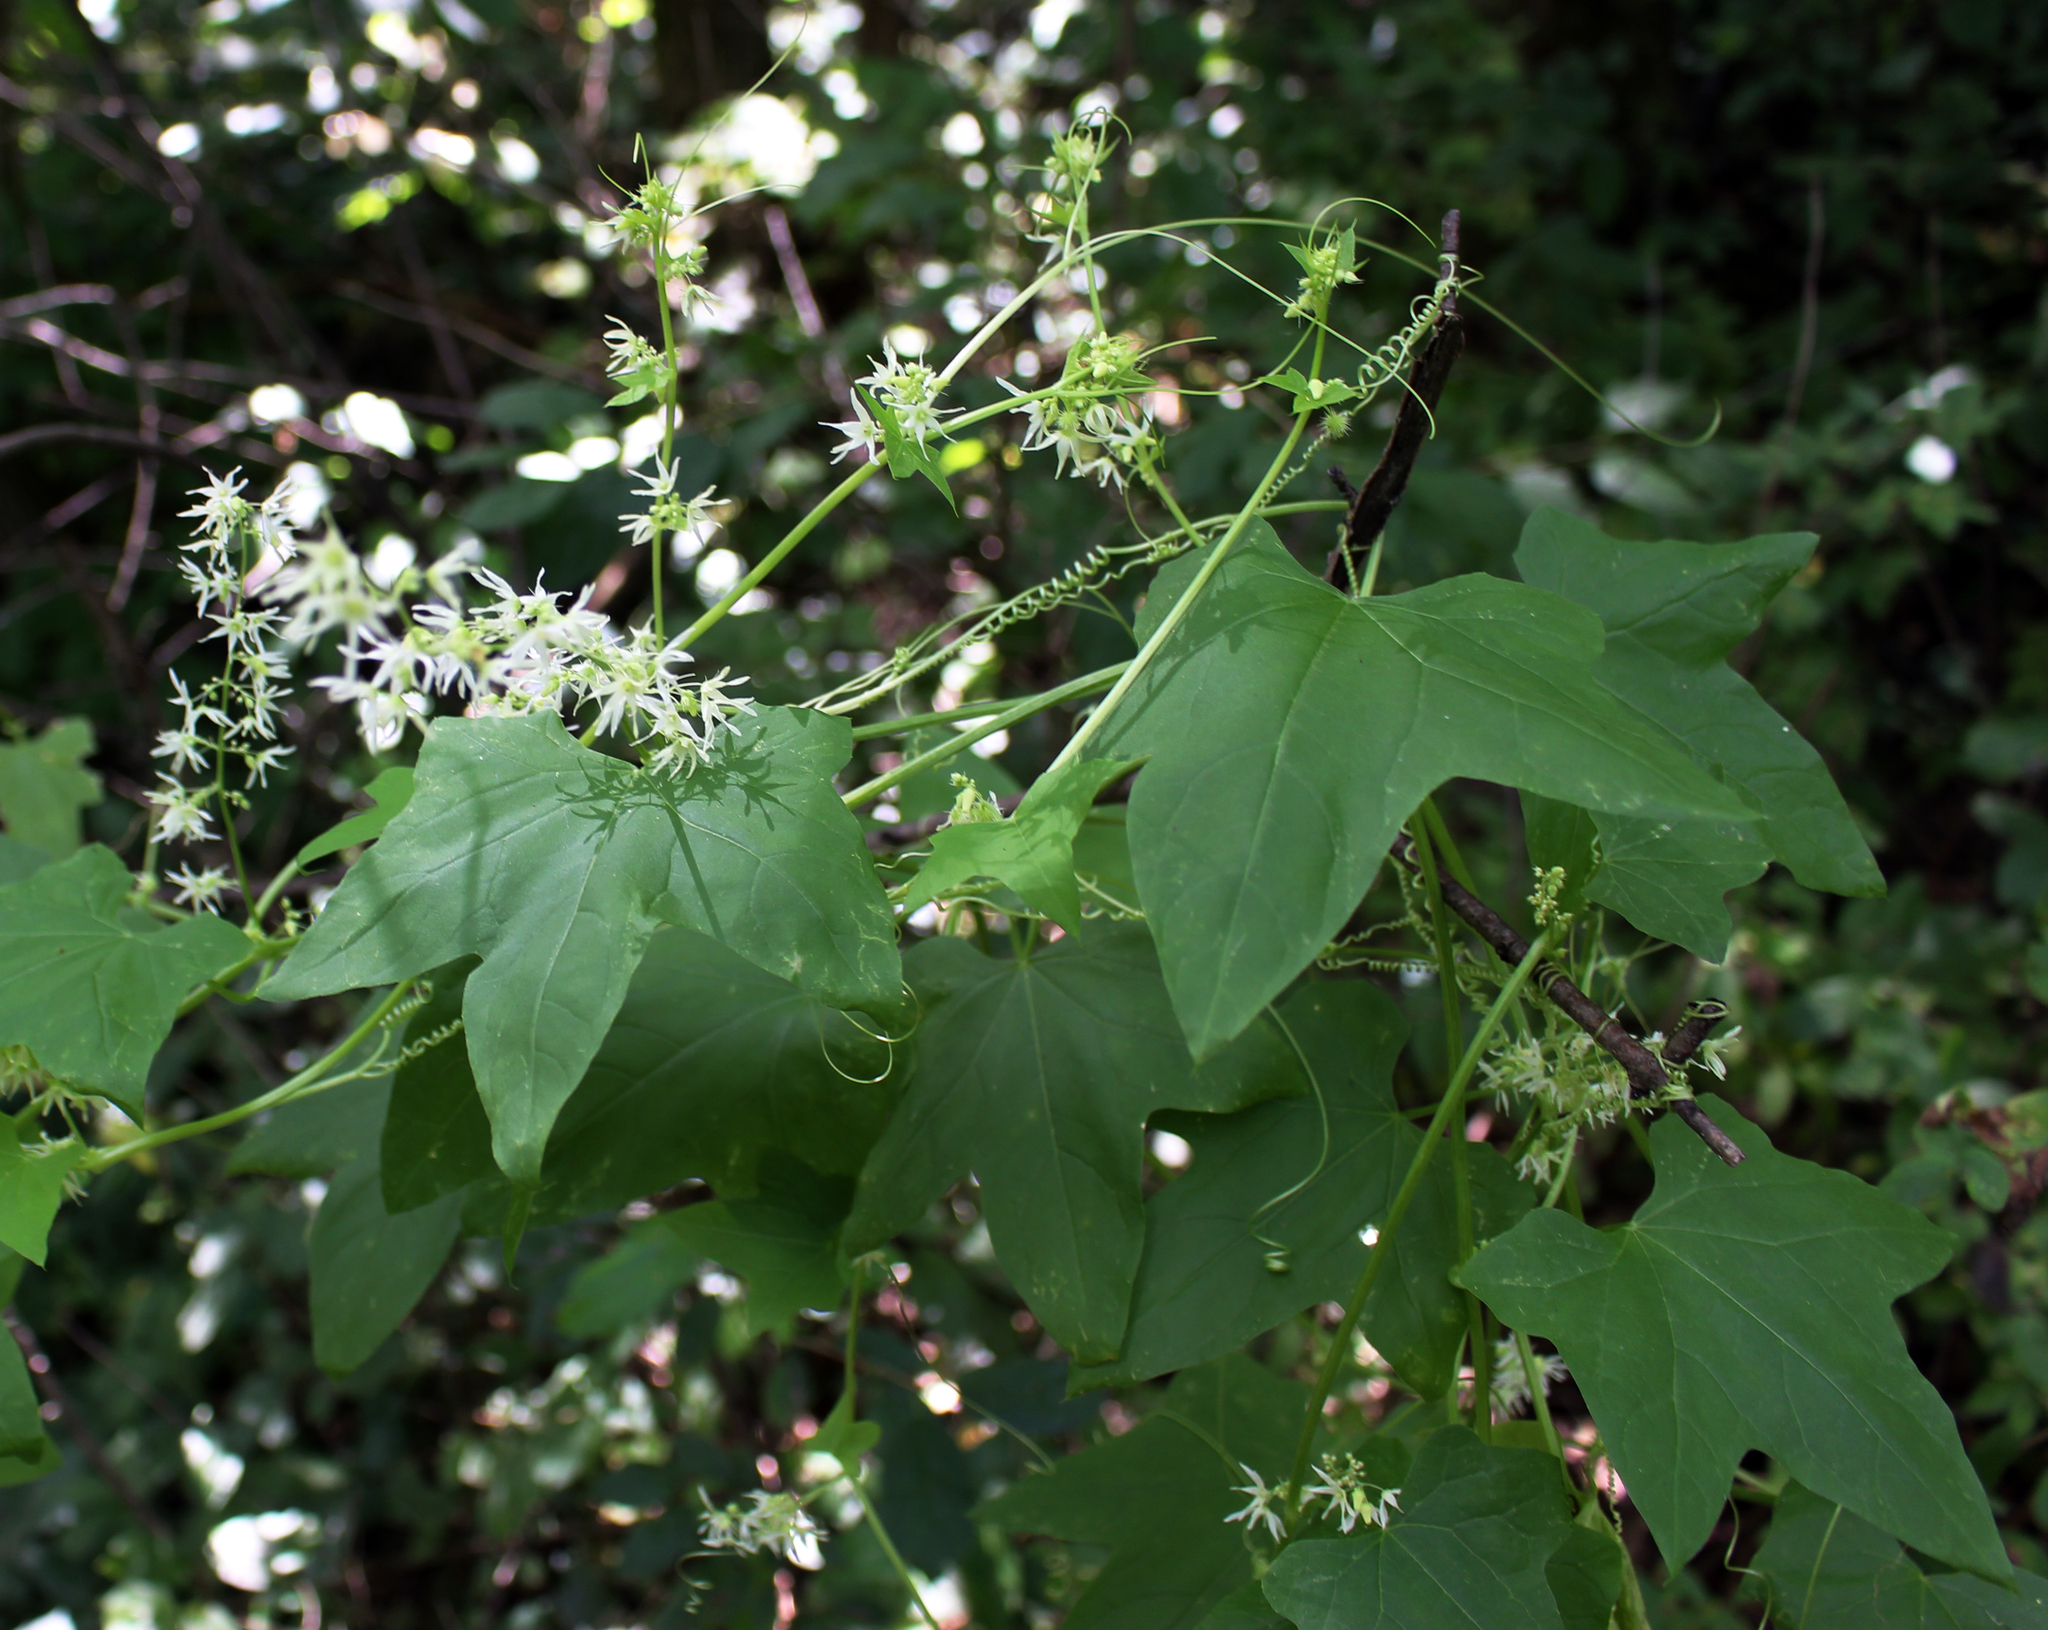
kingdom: Plantae
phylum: Tracheophyta
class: Magnoliopsida
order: Cucurbitales
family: Cucurbitaceae
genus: Echinocystis
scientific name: Echinocystis lobata
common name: Wild cucumber
